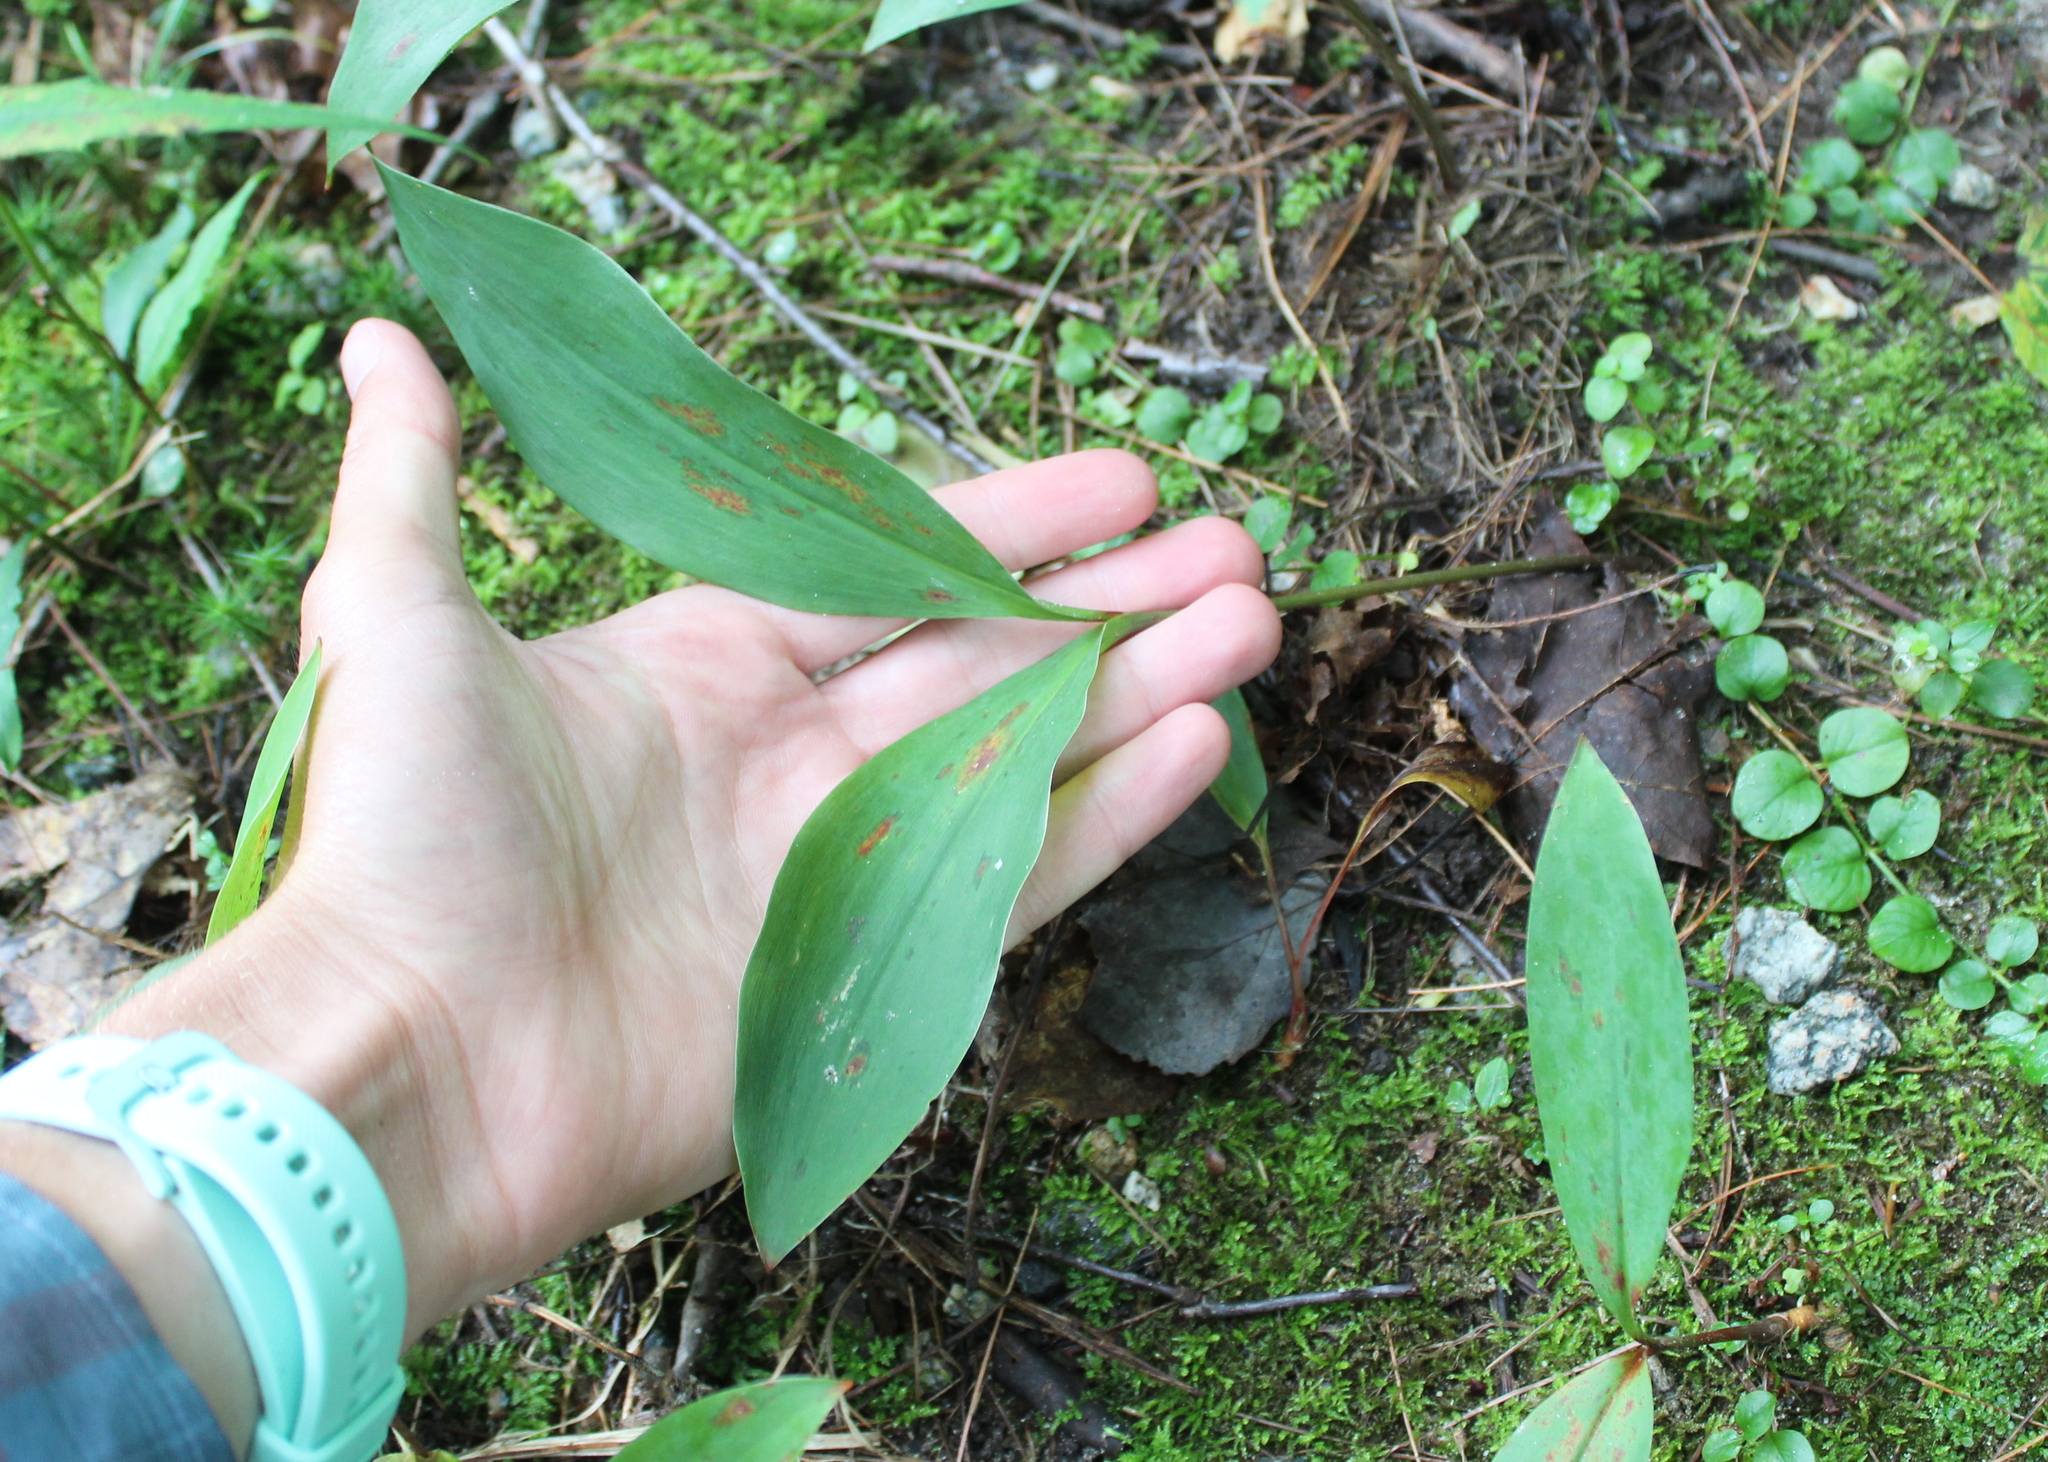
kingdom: Plantae
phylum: Tracheophyta
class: Liliopsida
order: Asparagales
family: Asparagaceae
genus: Convallaria
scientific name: Convallaria majalis
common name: Lily-of-the-valley
